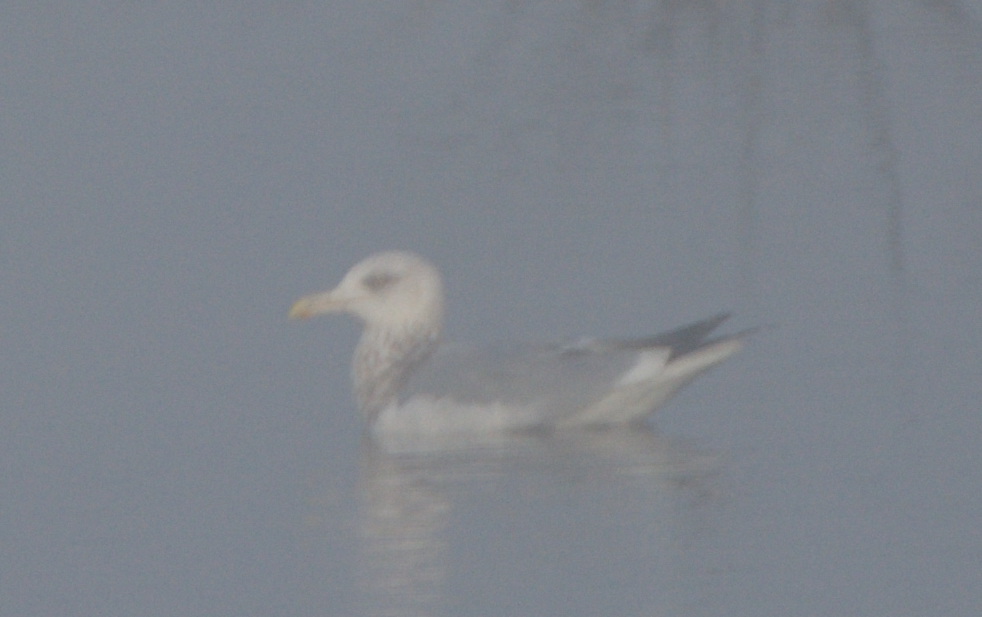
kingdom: Animalia
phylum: Chordata
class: Aves
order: Charadriiformes
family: Laridae
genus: Larus
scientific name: Larus argentatus
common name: Herring gull
